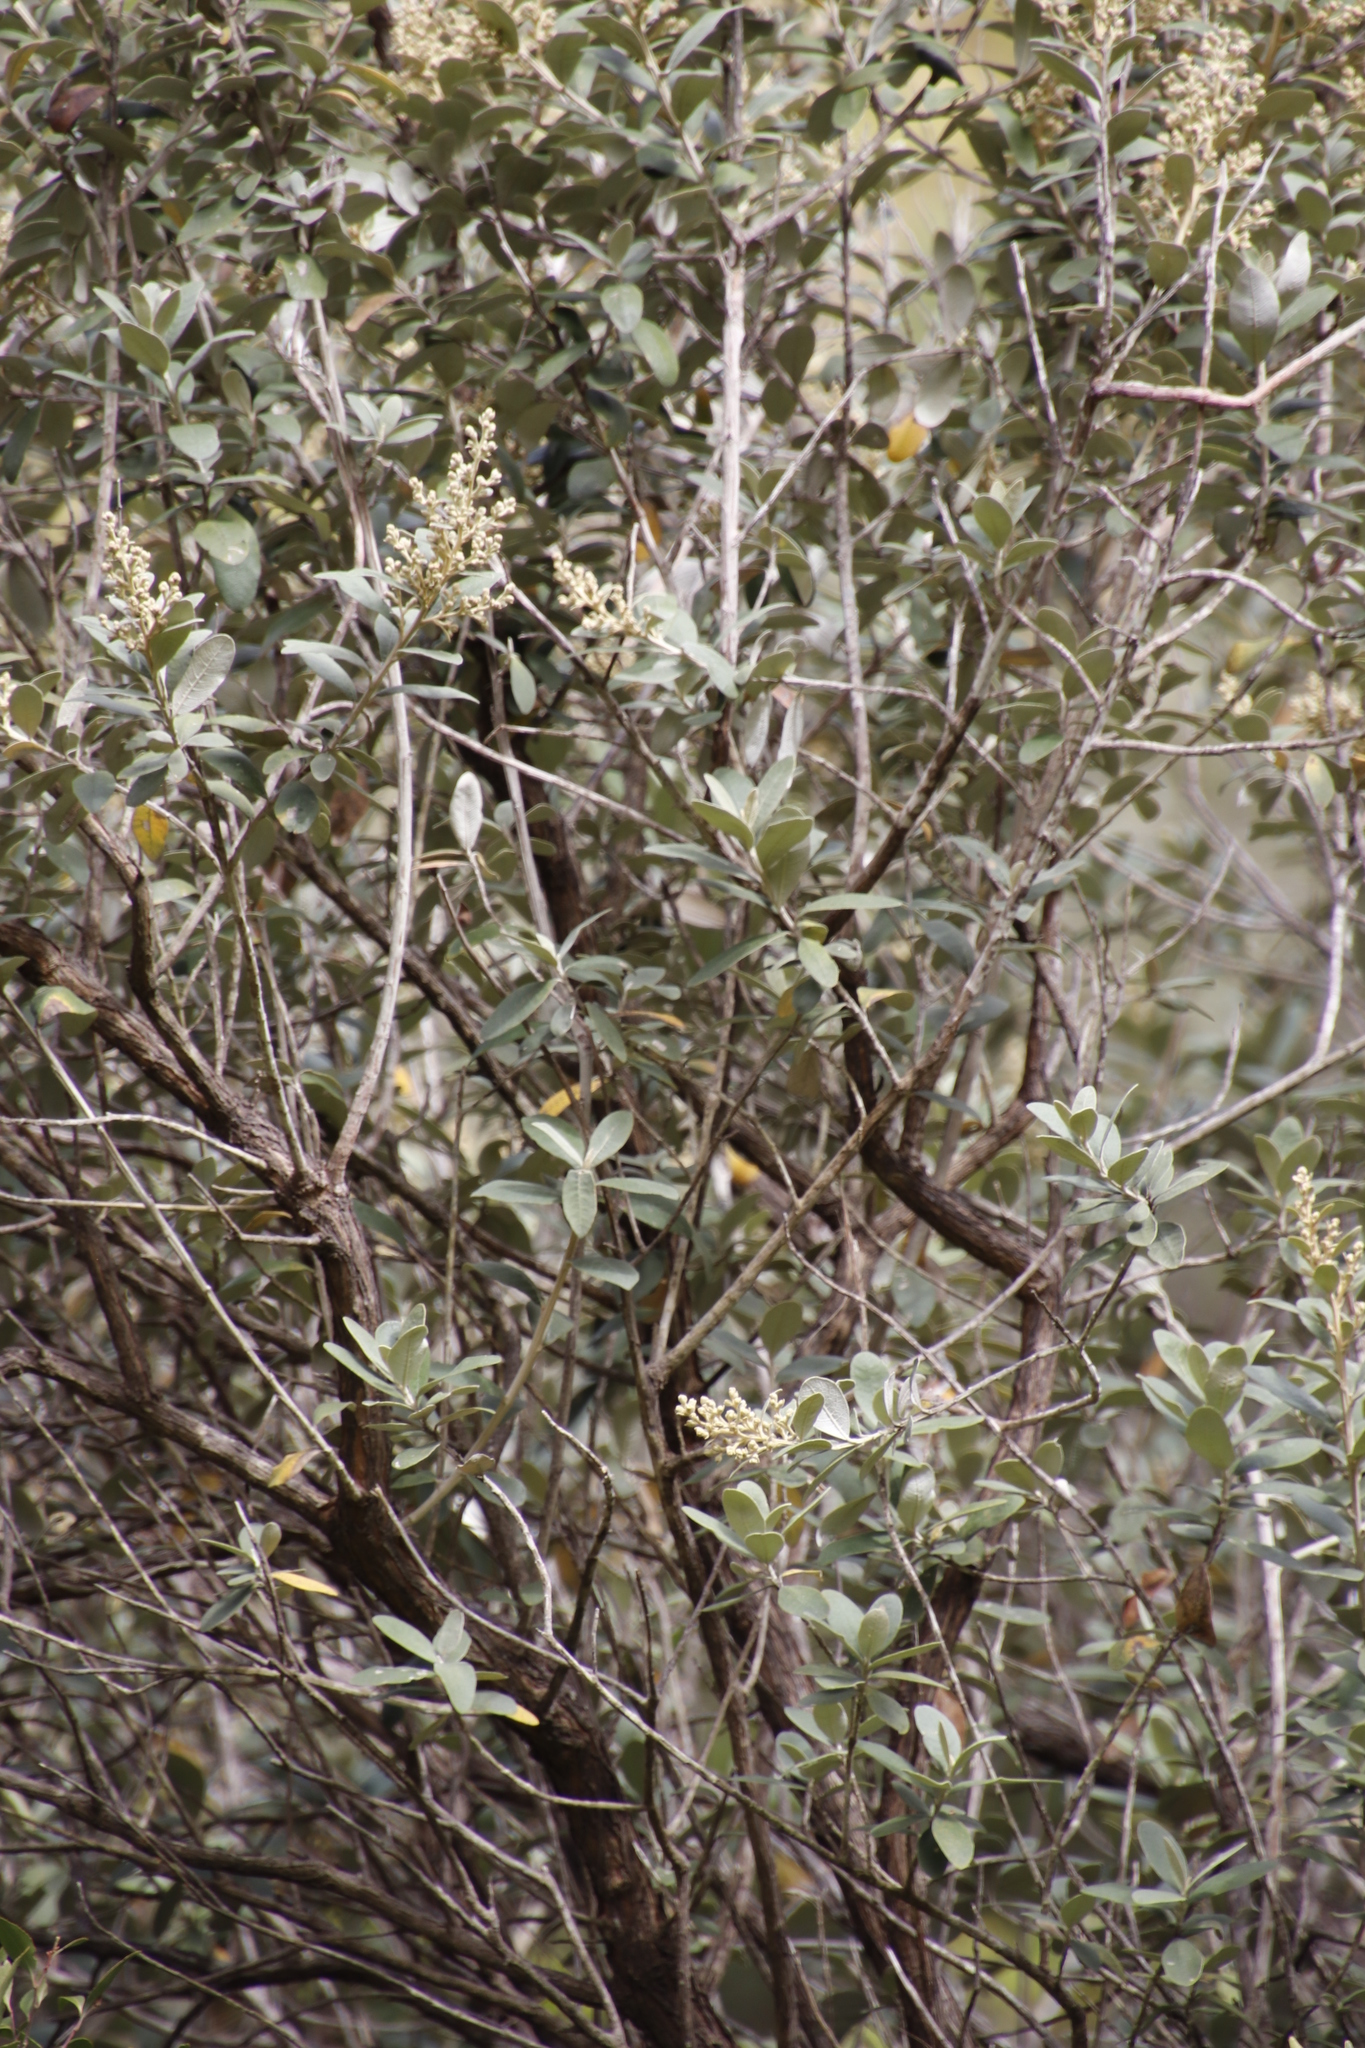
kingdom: Plantae
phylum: Tracheophyta
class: Magnoliopsida
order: Asterales
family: Asteraceae
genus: Tarchonanthus
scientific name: Tarchonanthus littoralis
